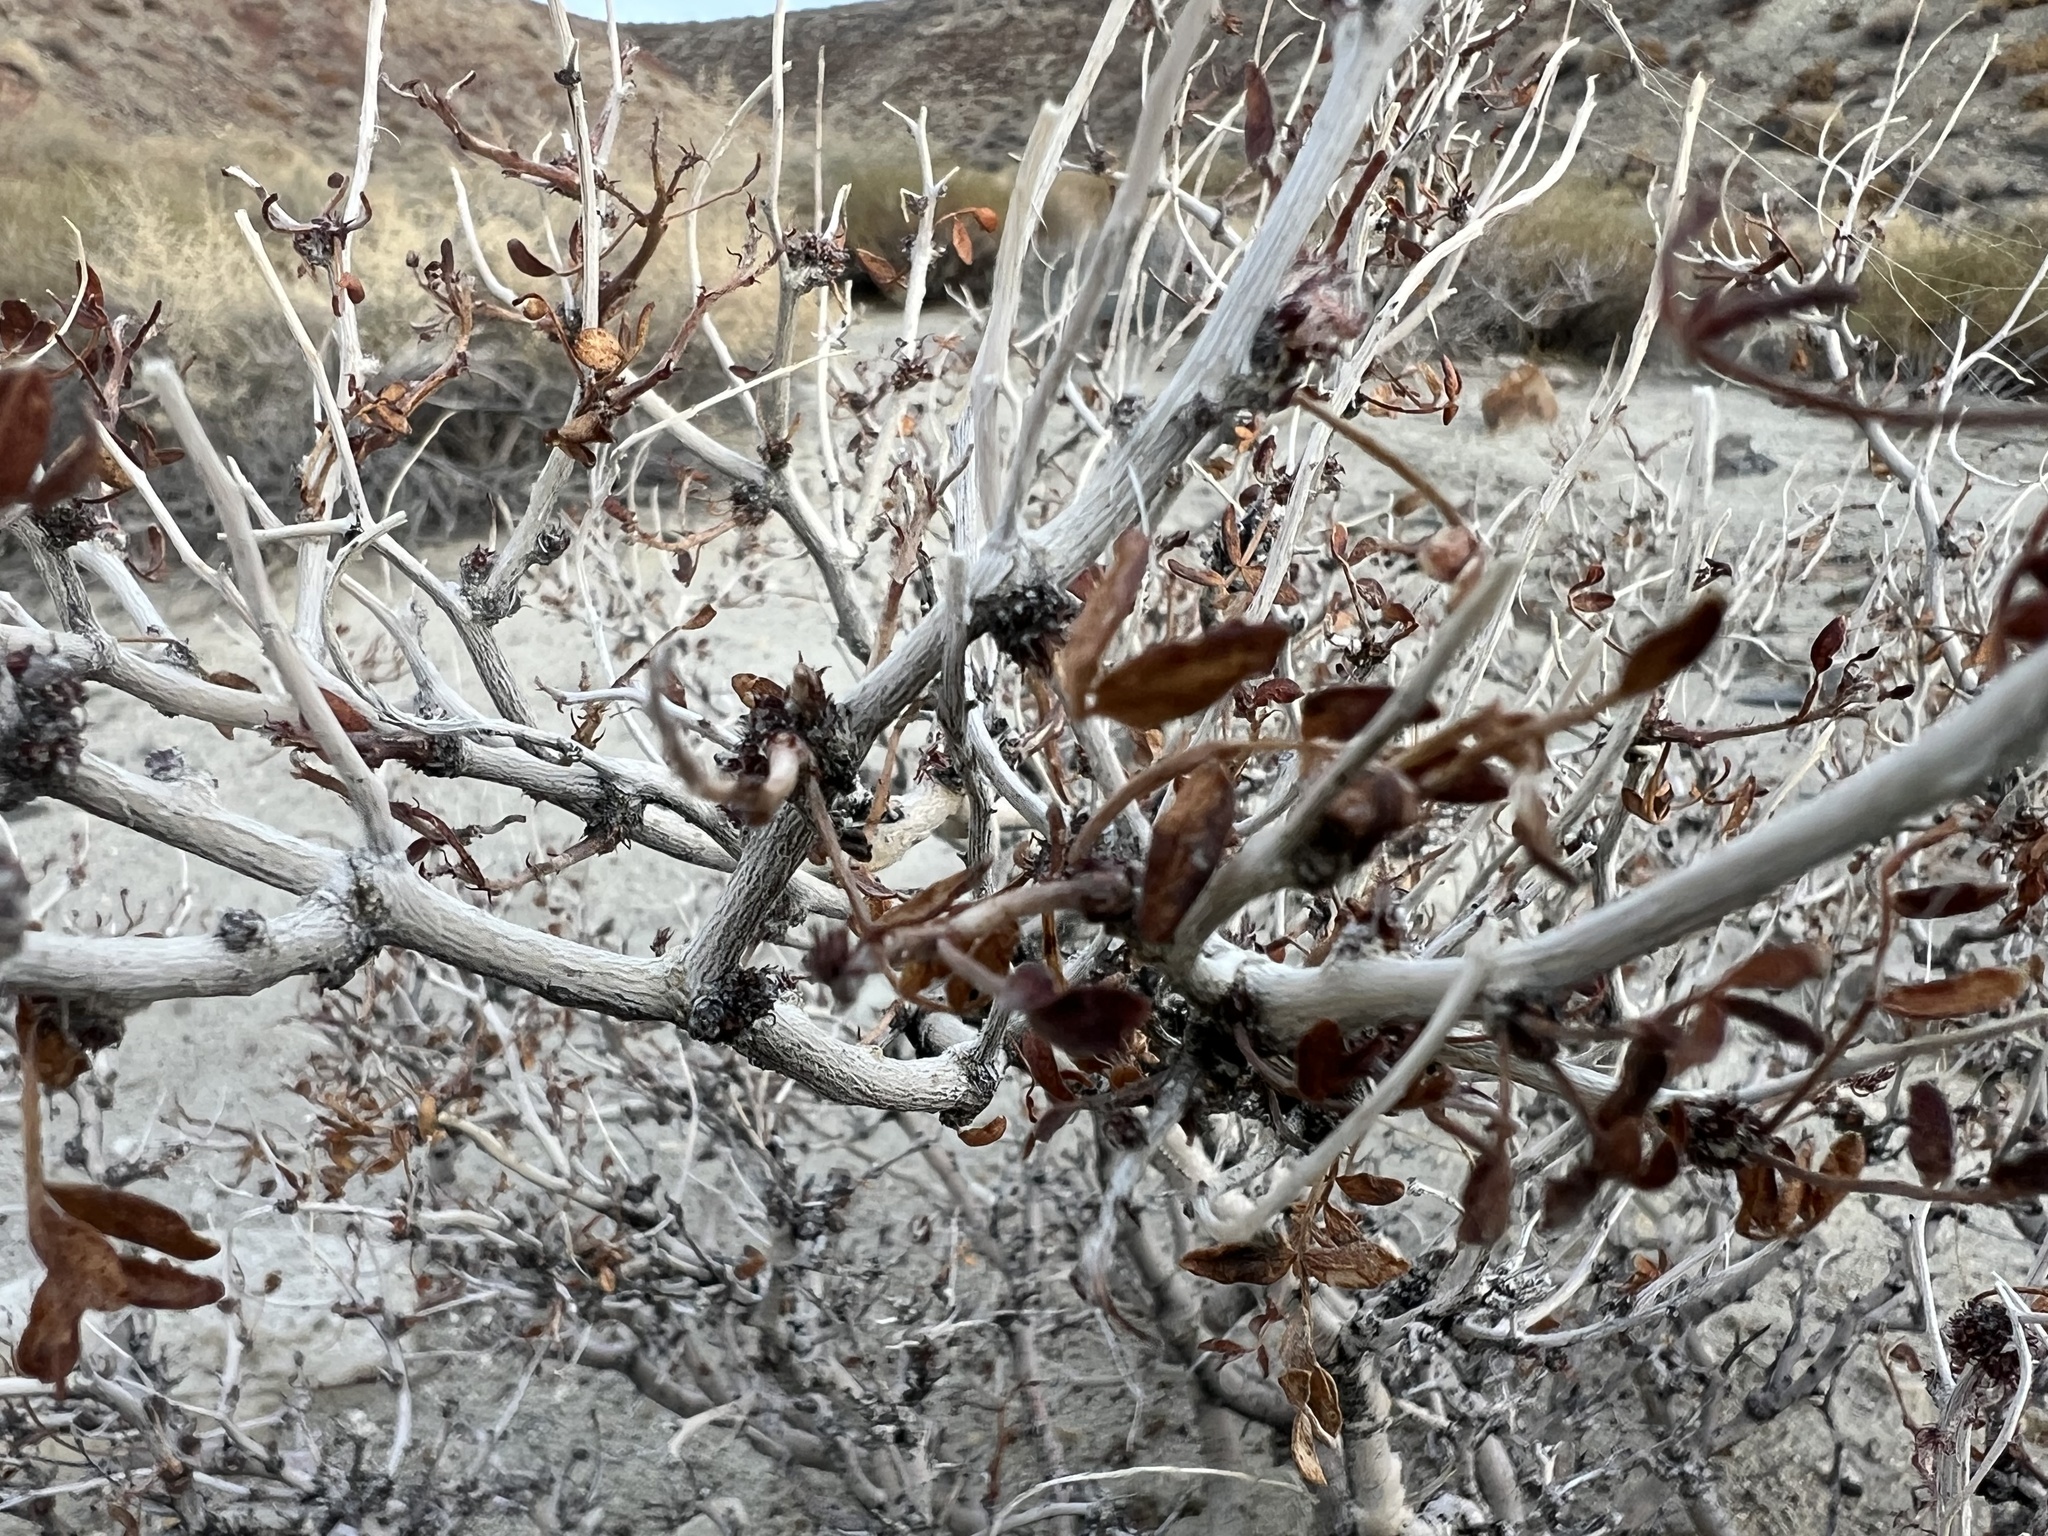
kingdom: Plantae
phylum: Tracheophyta
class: Magnoliopsida
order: Fabales
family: Fabaceae
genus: Psorothamnus
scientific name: Psorothamnus arborescens
